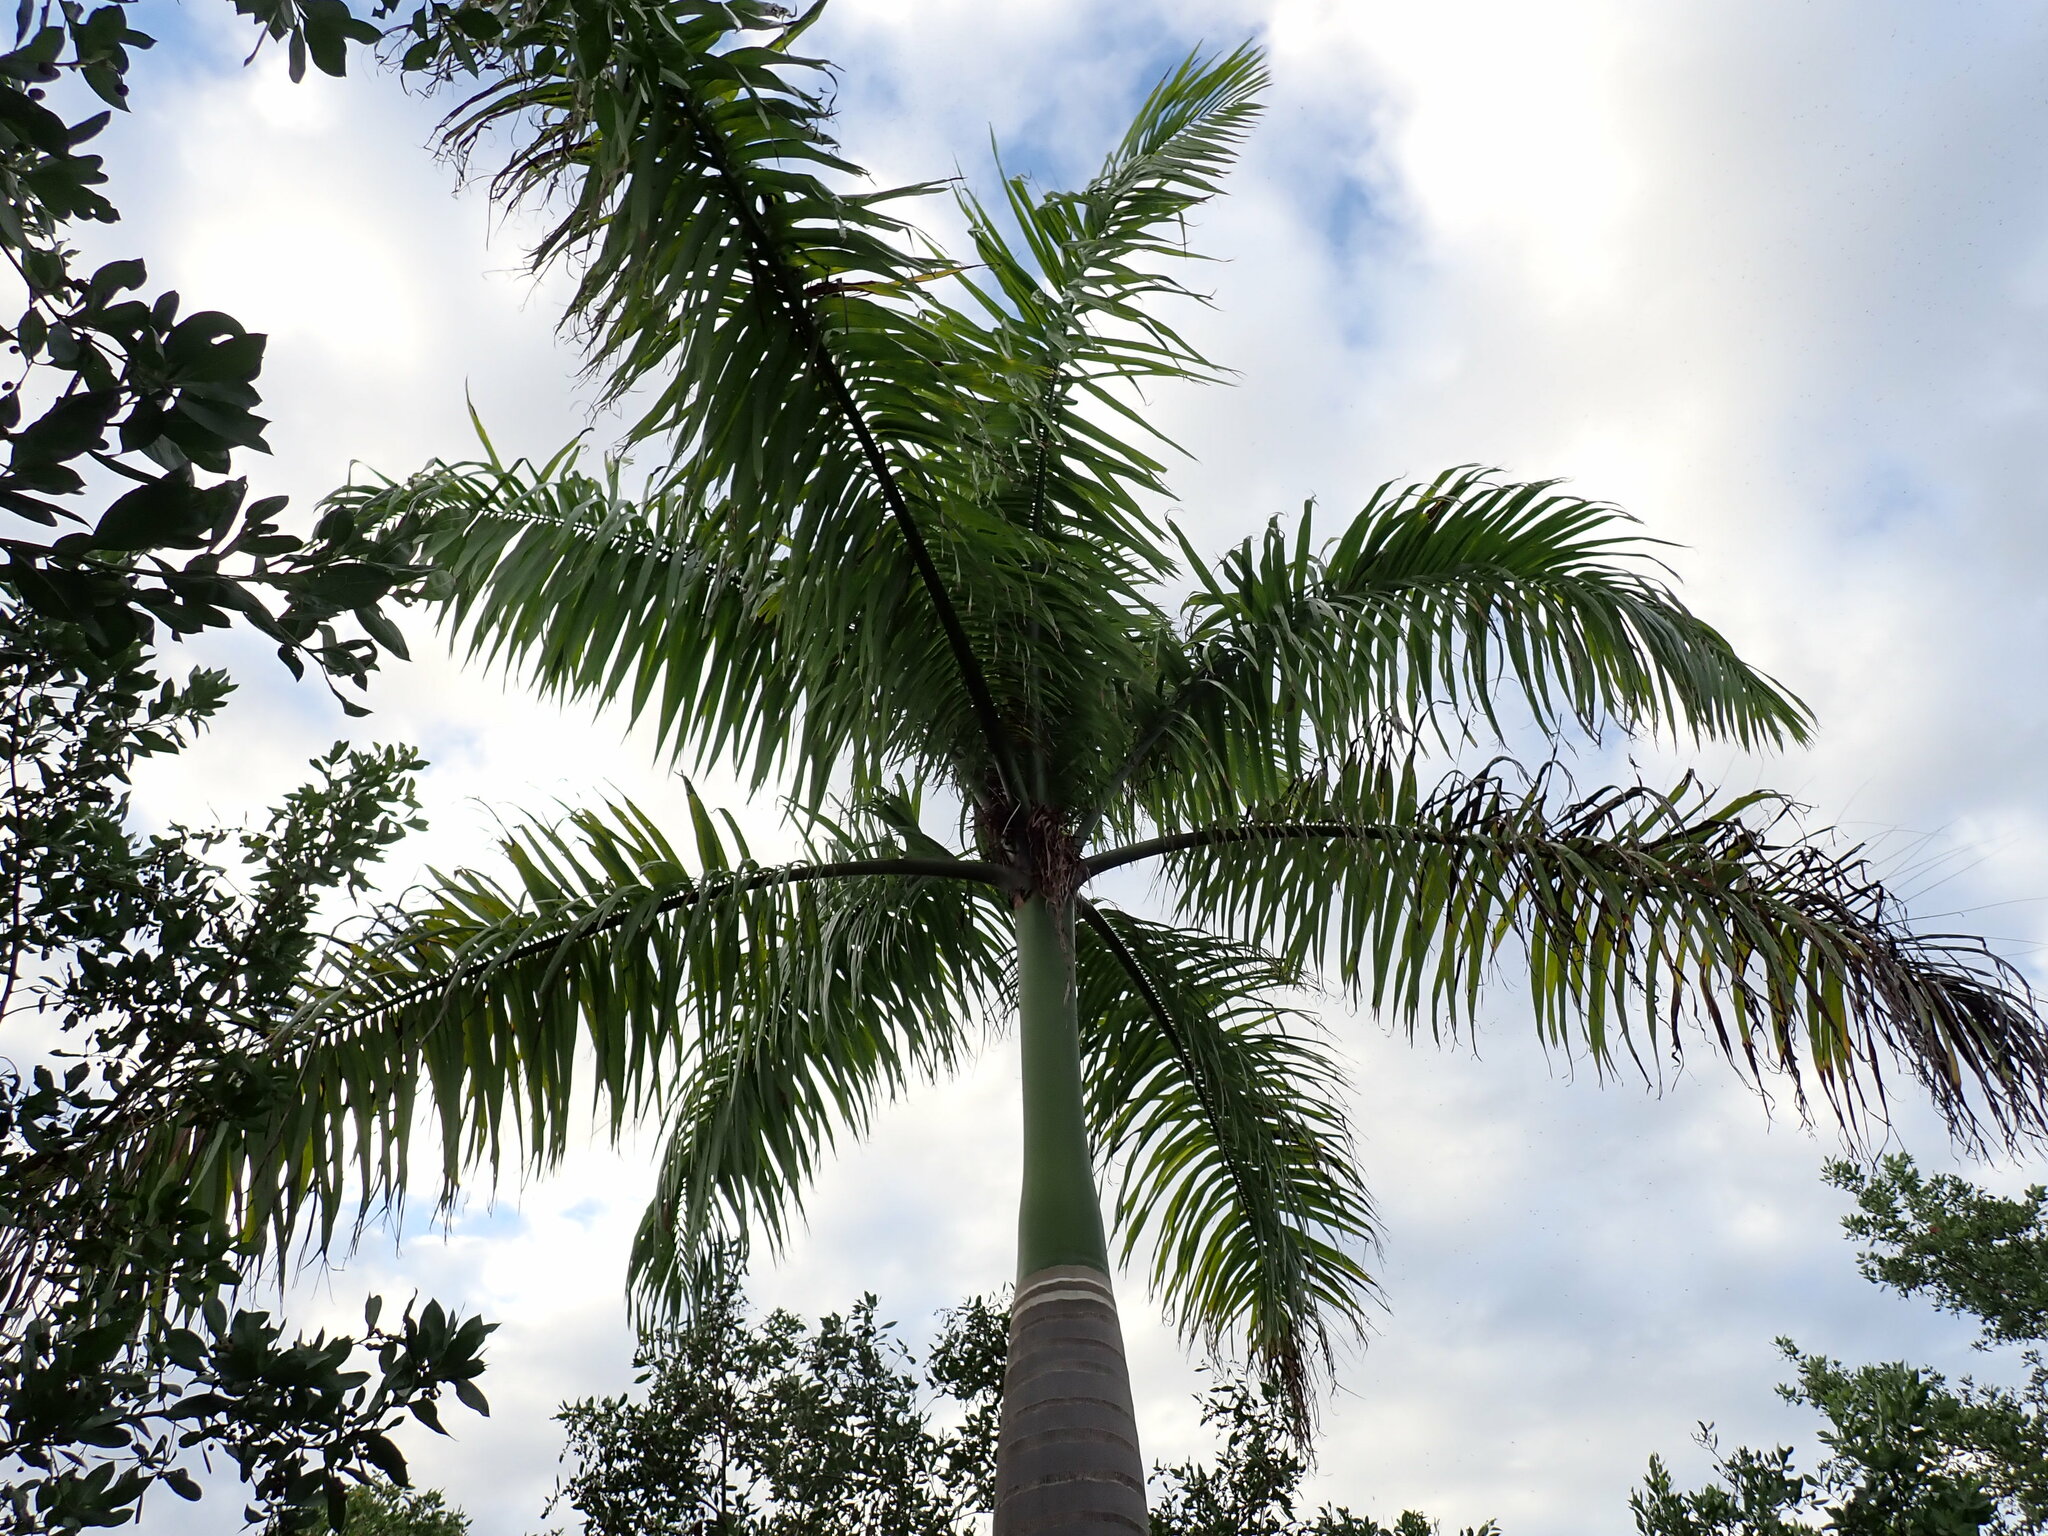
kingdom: Plantae
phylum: Tracheophyta
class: Liliopsida
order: Arecales
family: Arecaceae
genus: Roystonea
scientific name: Roystonea borinquena
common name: Puerto rican royal palm
